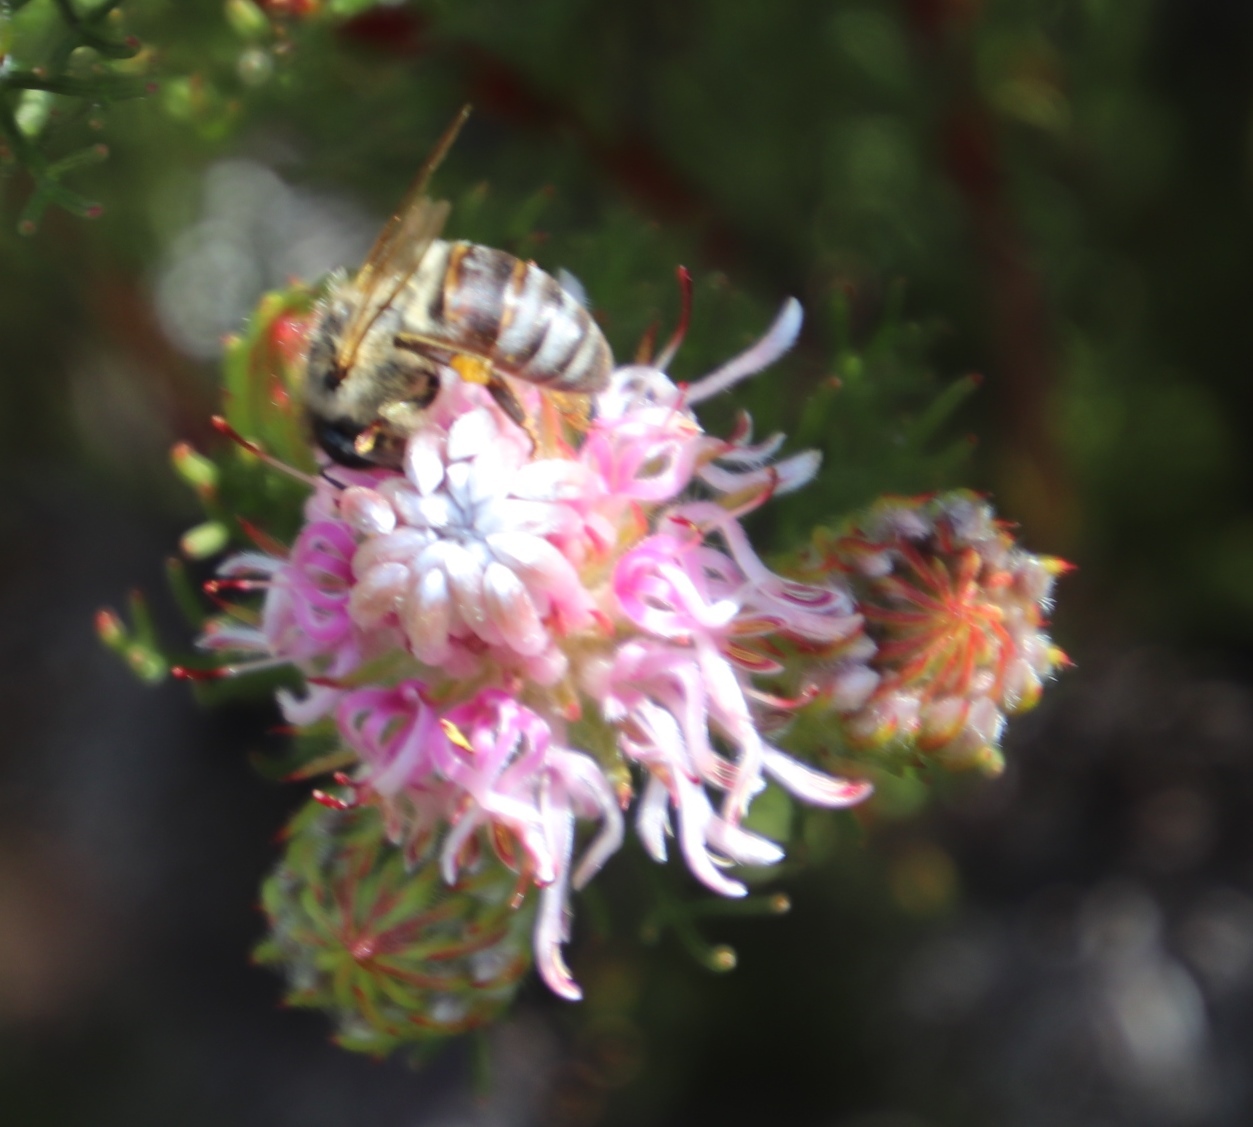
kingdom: Animalia
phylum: Arthropoda
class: Insecta
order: Hymenoptera
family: Apidae
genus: Apis
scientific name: Apis mellifera
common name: Honey bee
